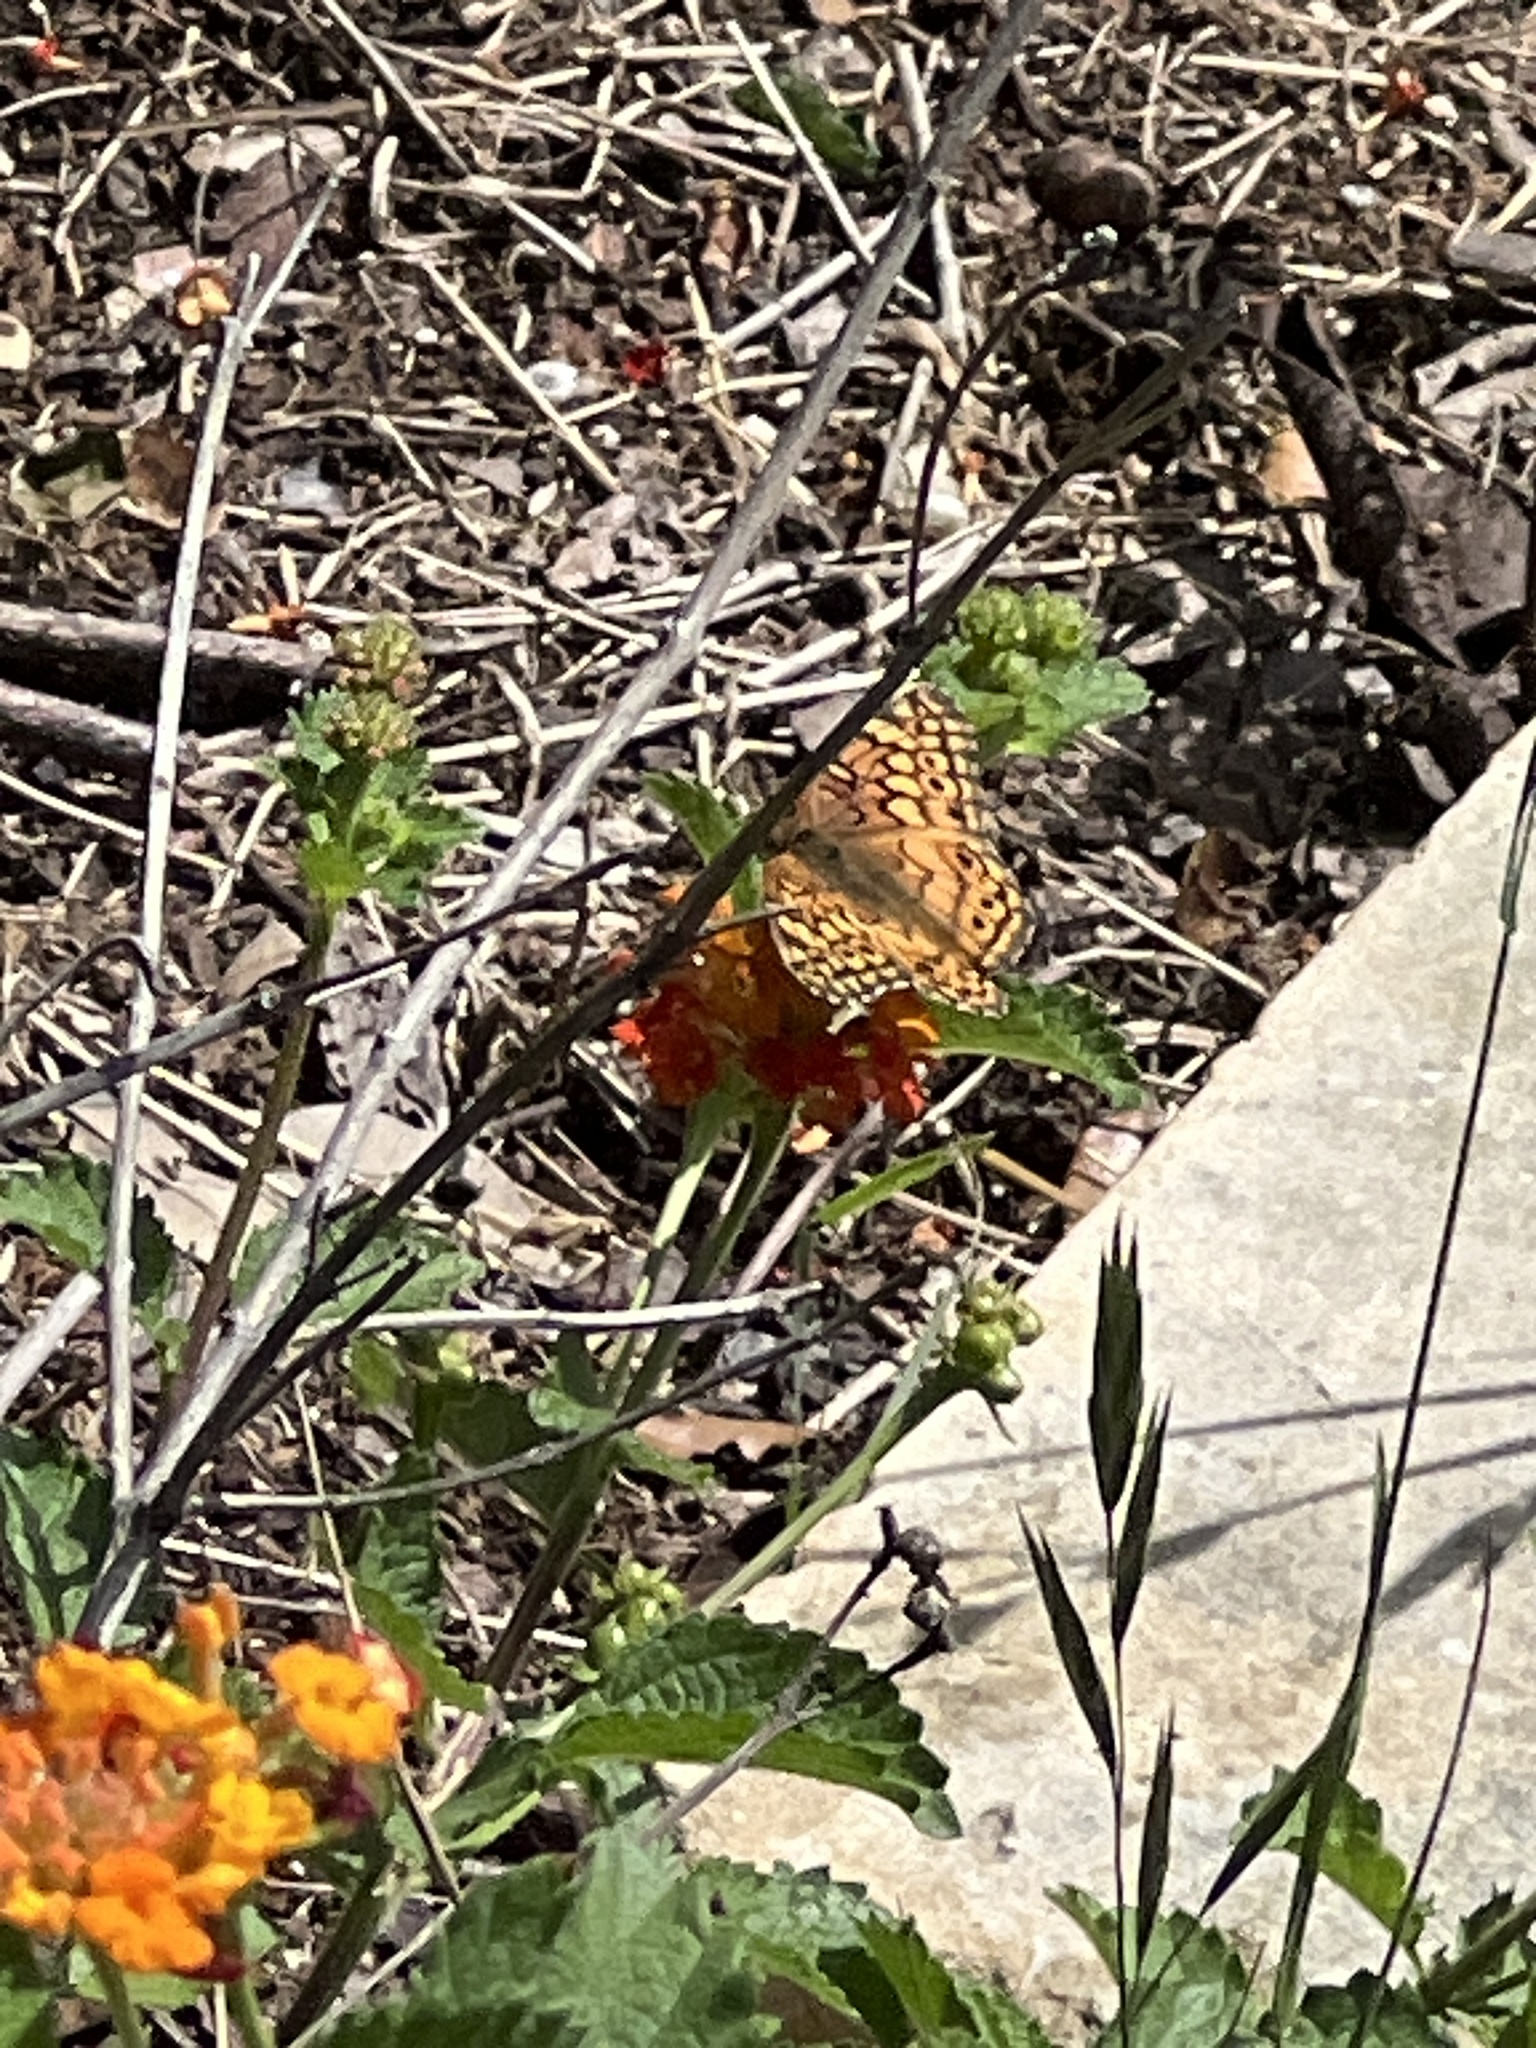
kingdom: Animalia
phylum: Arthropoda
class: Insecta
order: Lepidoptera
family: Nymphalidae
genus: Euptoieta
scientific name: Euptoieta claudia
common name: Variegated fritillary
